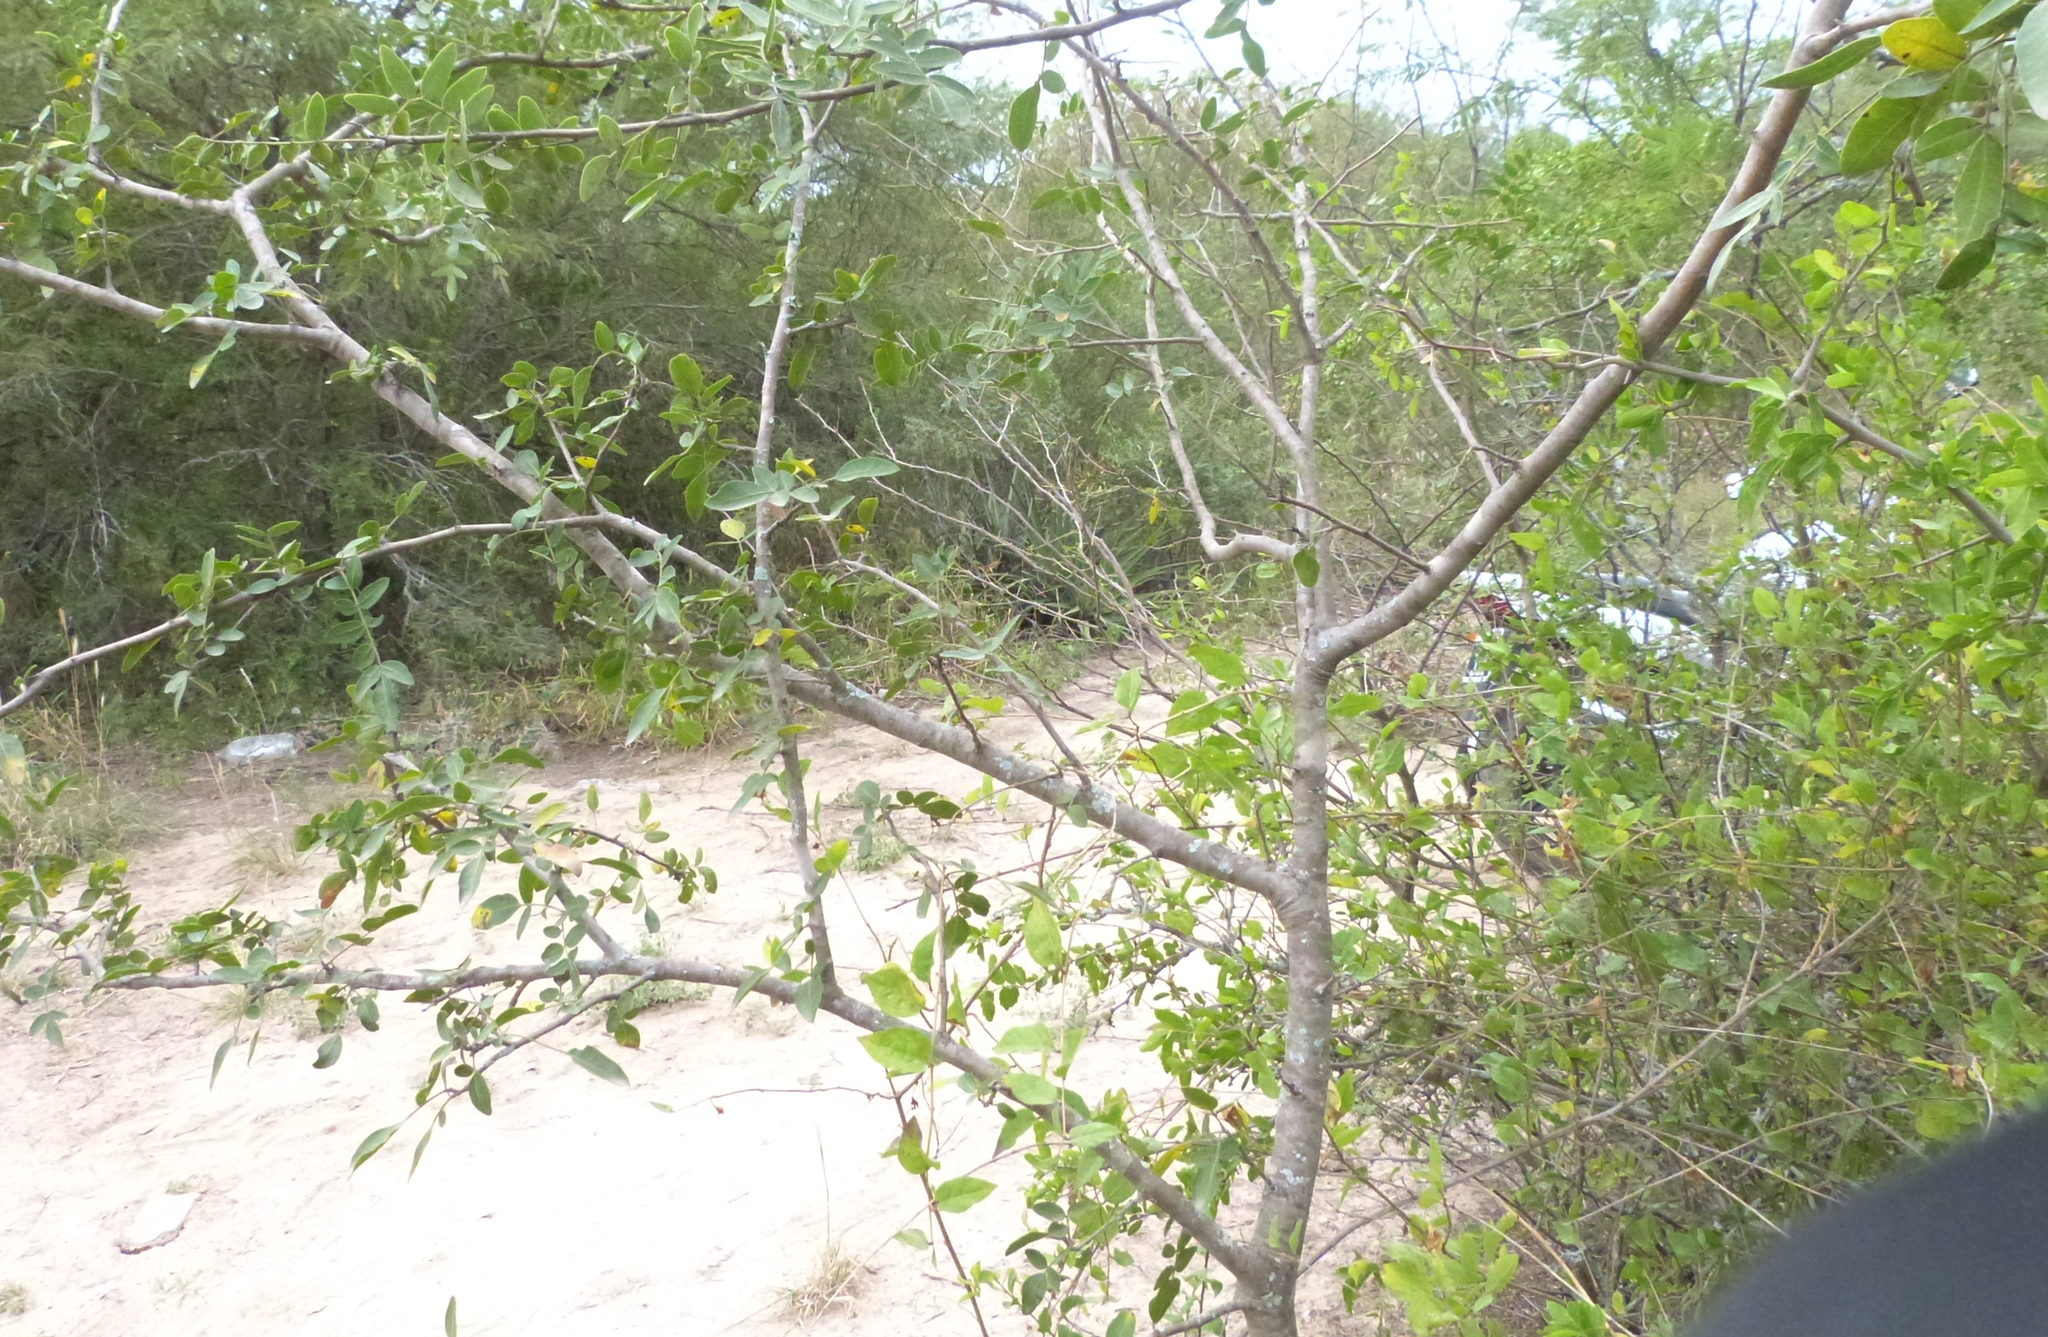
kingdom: Plantae
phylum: Tracheophyta
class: Magnoliopsida
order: Sapindales
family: Anacardiaceae
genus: Schinopsis
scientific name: Schinopsis lorentzii
